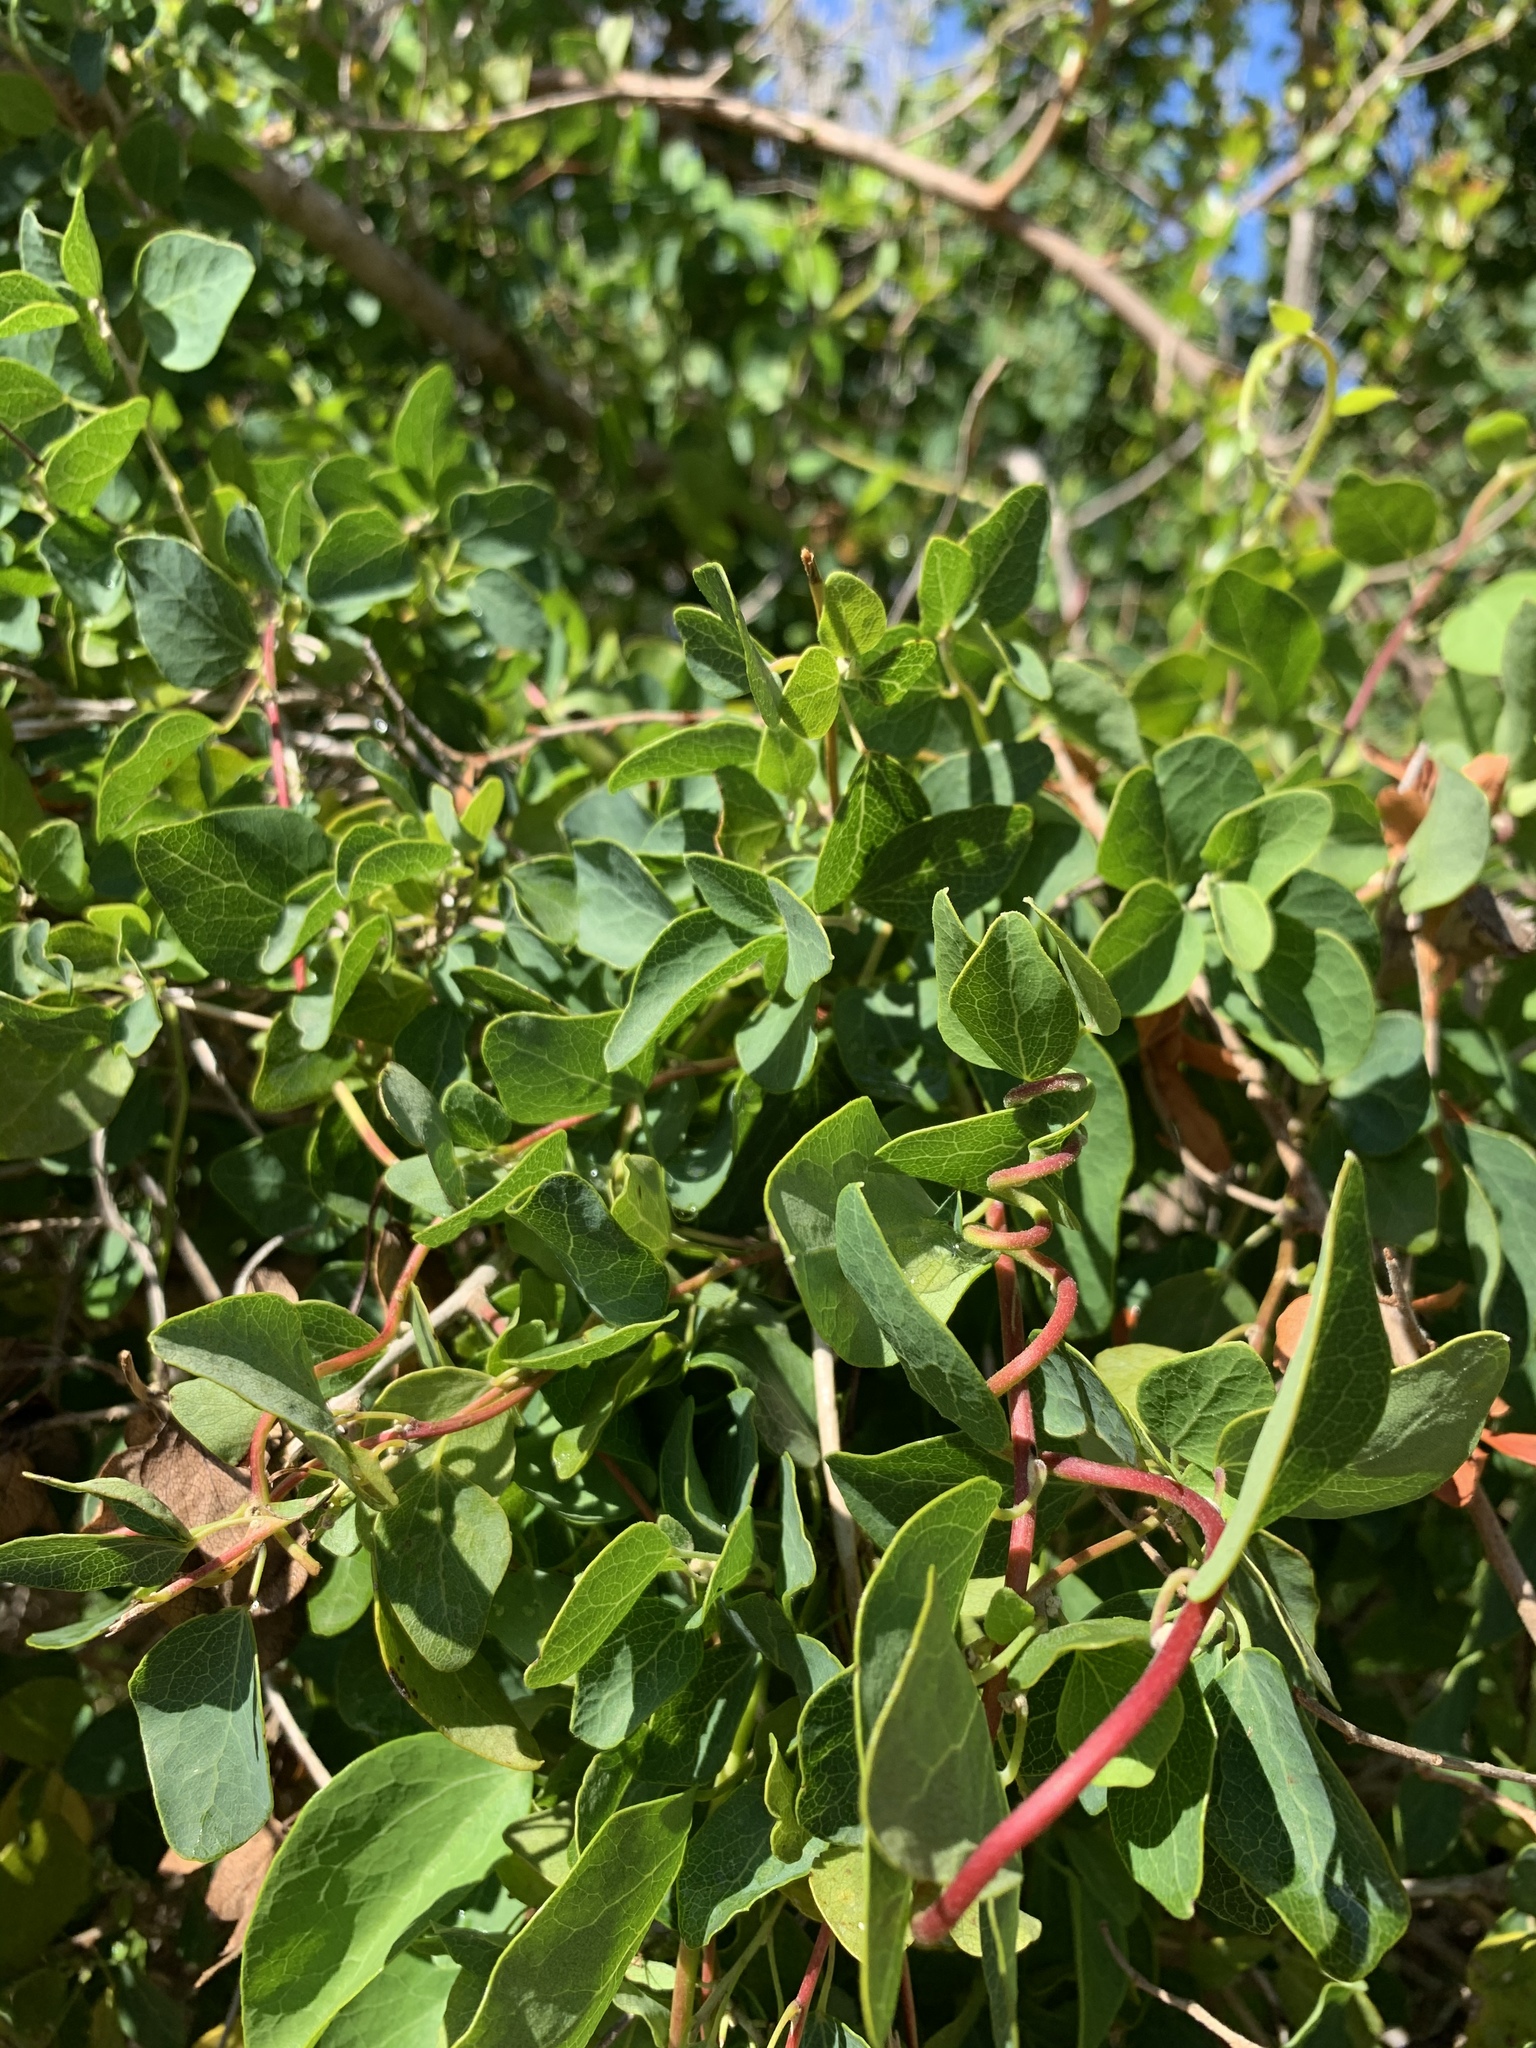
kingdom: Plantae
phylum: Tracheophyta
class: Magnoliopsida
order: Ranunculales
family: Menispermaceae
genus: Cissampelos
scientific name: Cissampelos capensis
